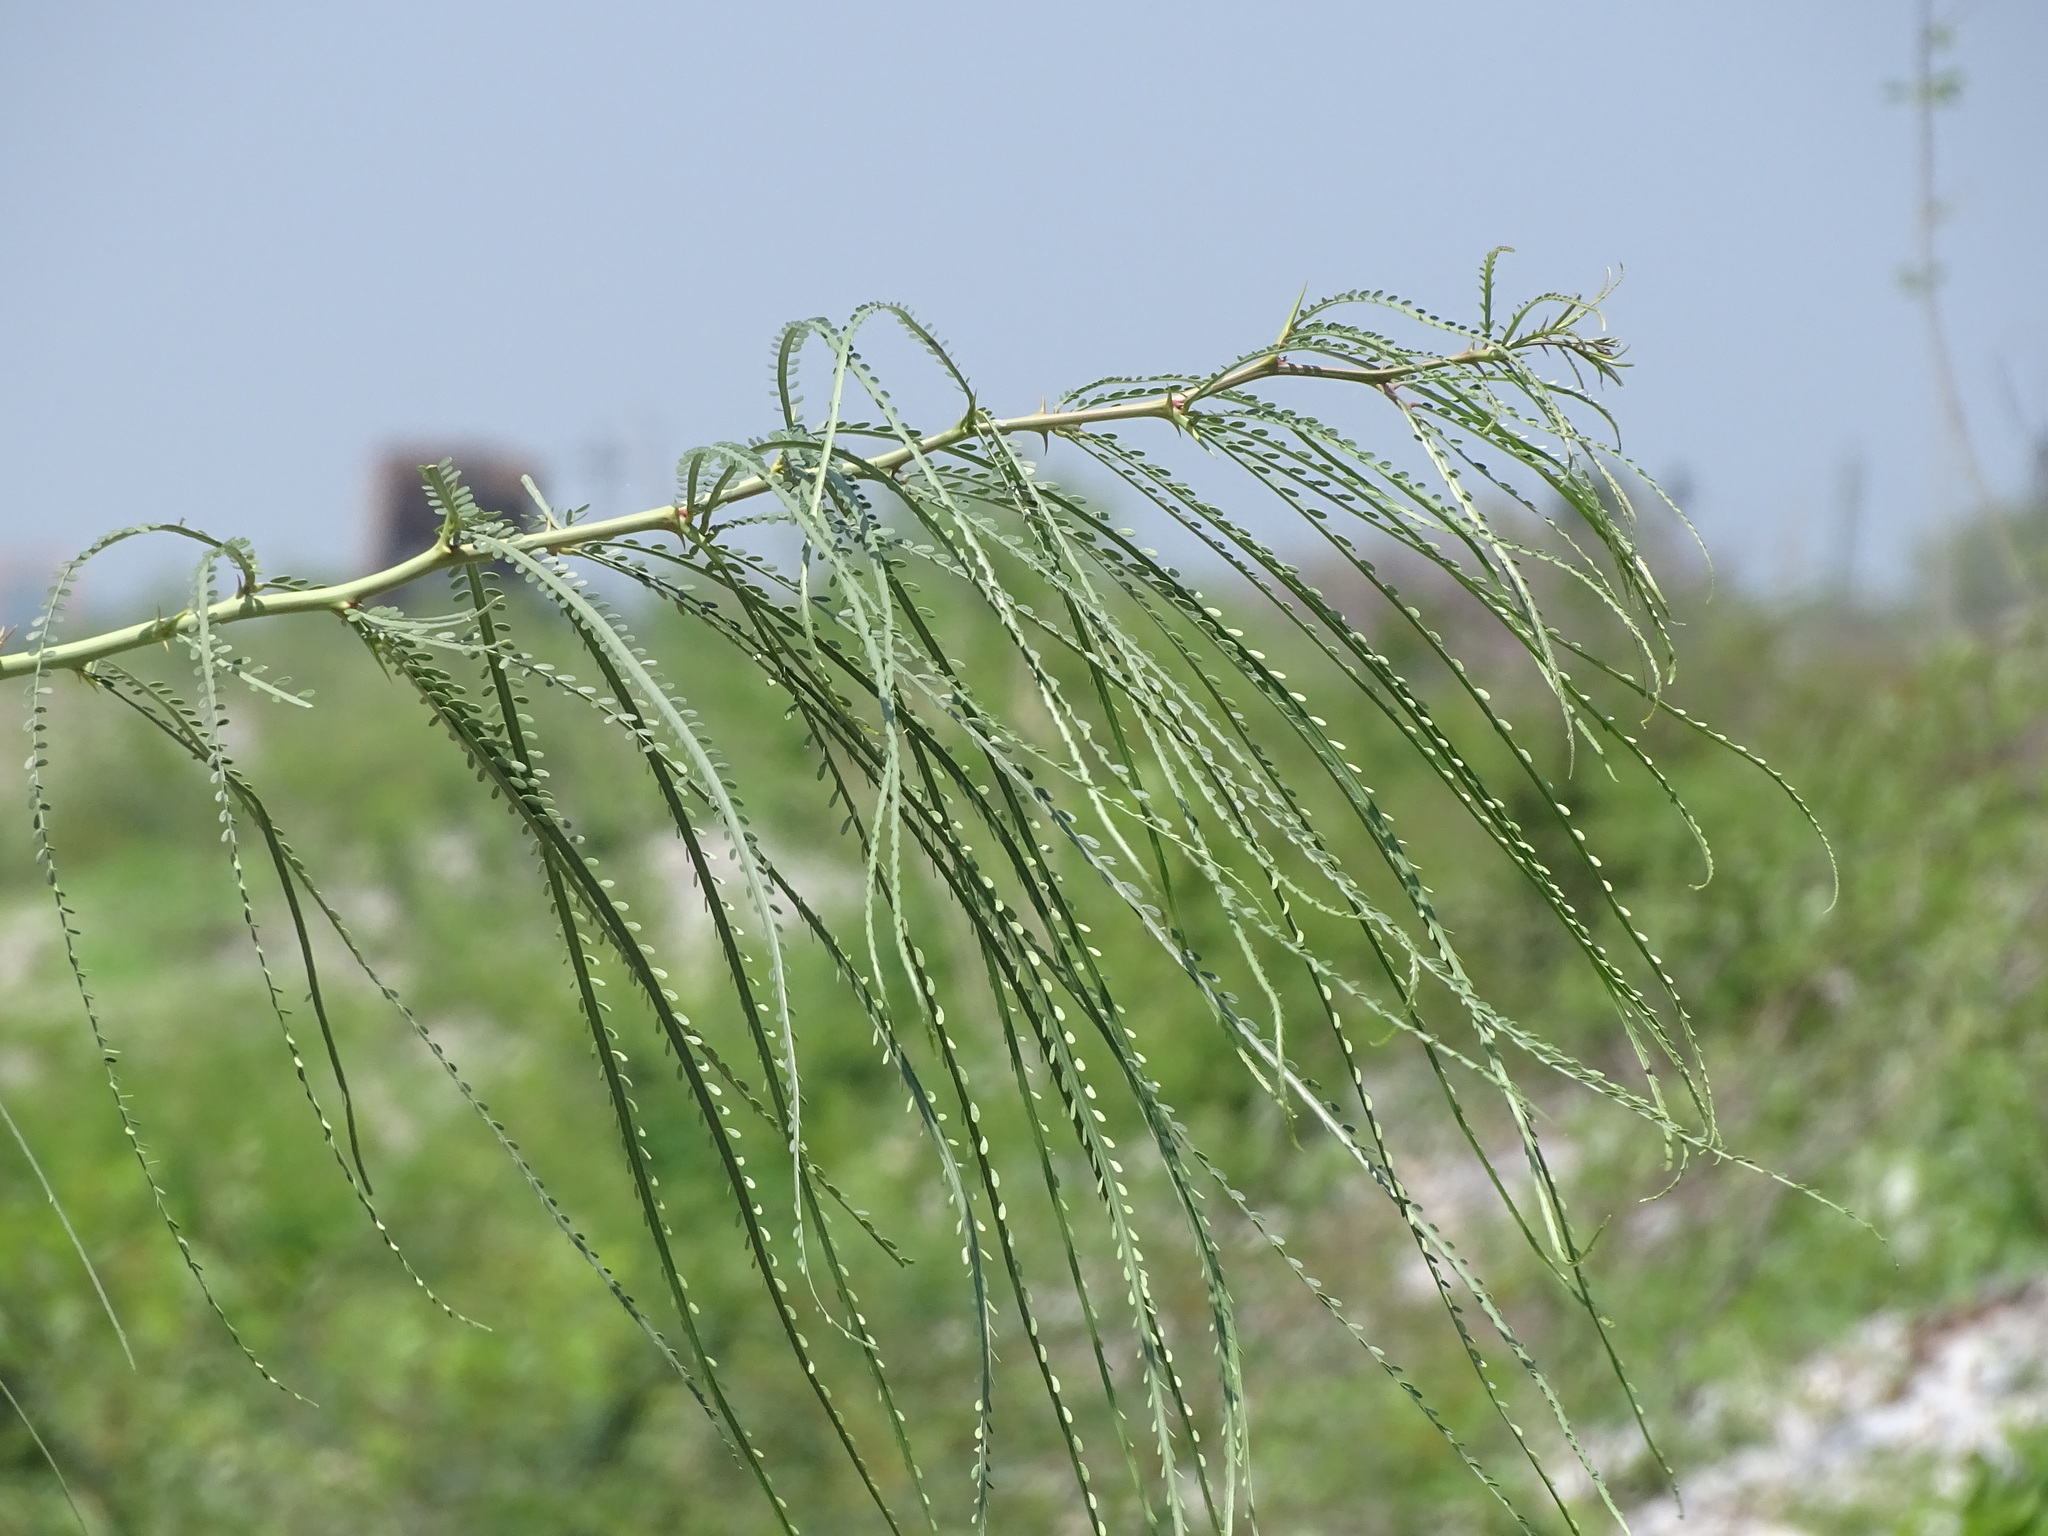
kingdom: Plantae
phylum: Tracheophyta
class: Magnoliopsida
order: Fabales
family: Fabaceae
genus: Parkinsonia
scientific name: Parkinsonia aculeata
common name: Jerusalem thorn
